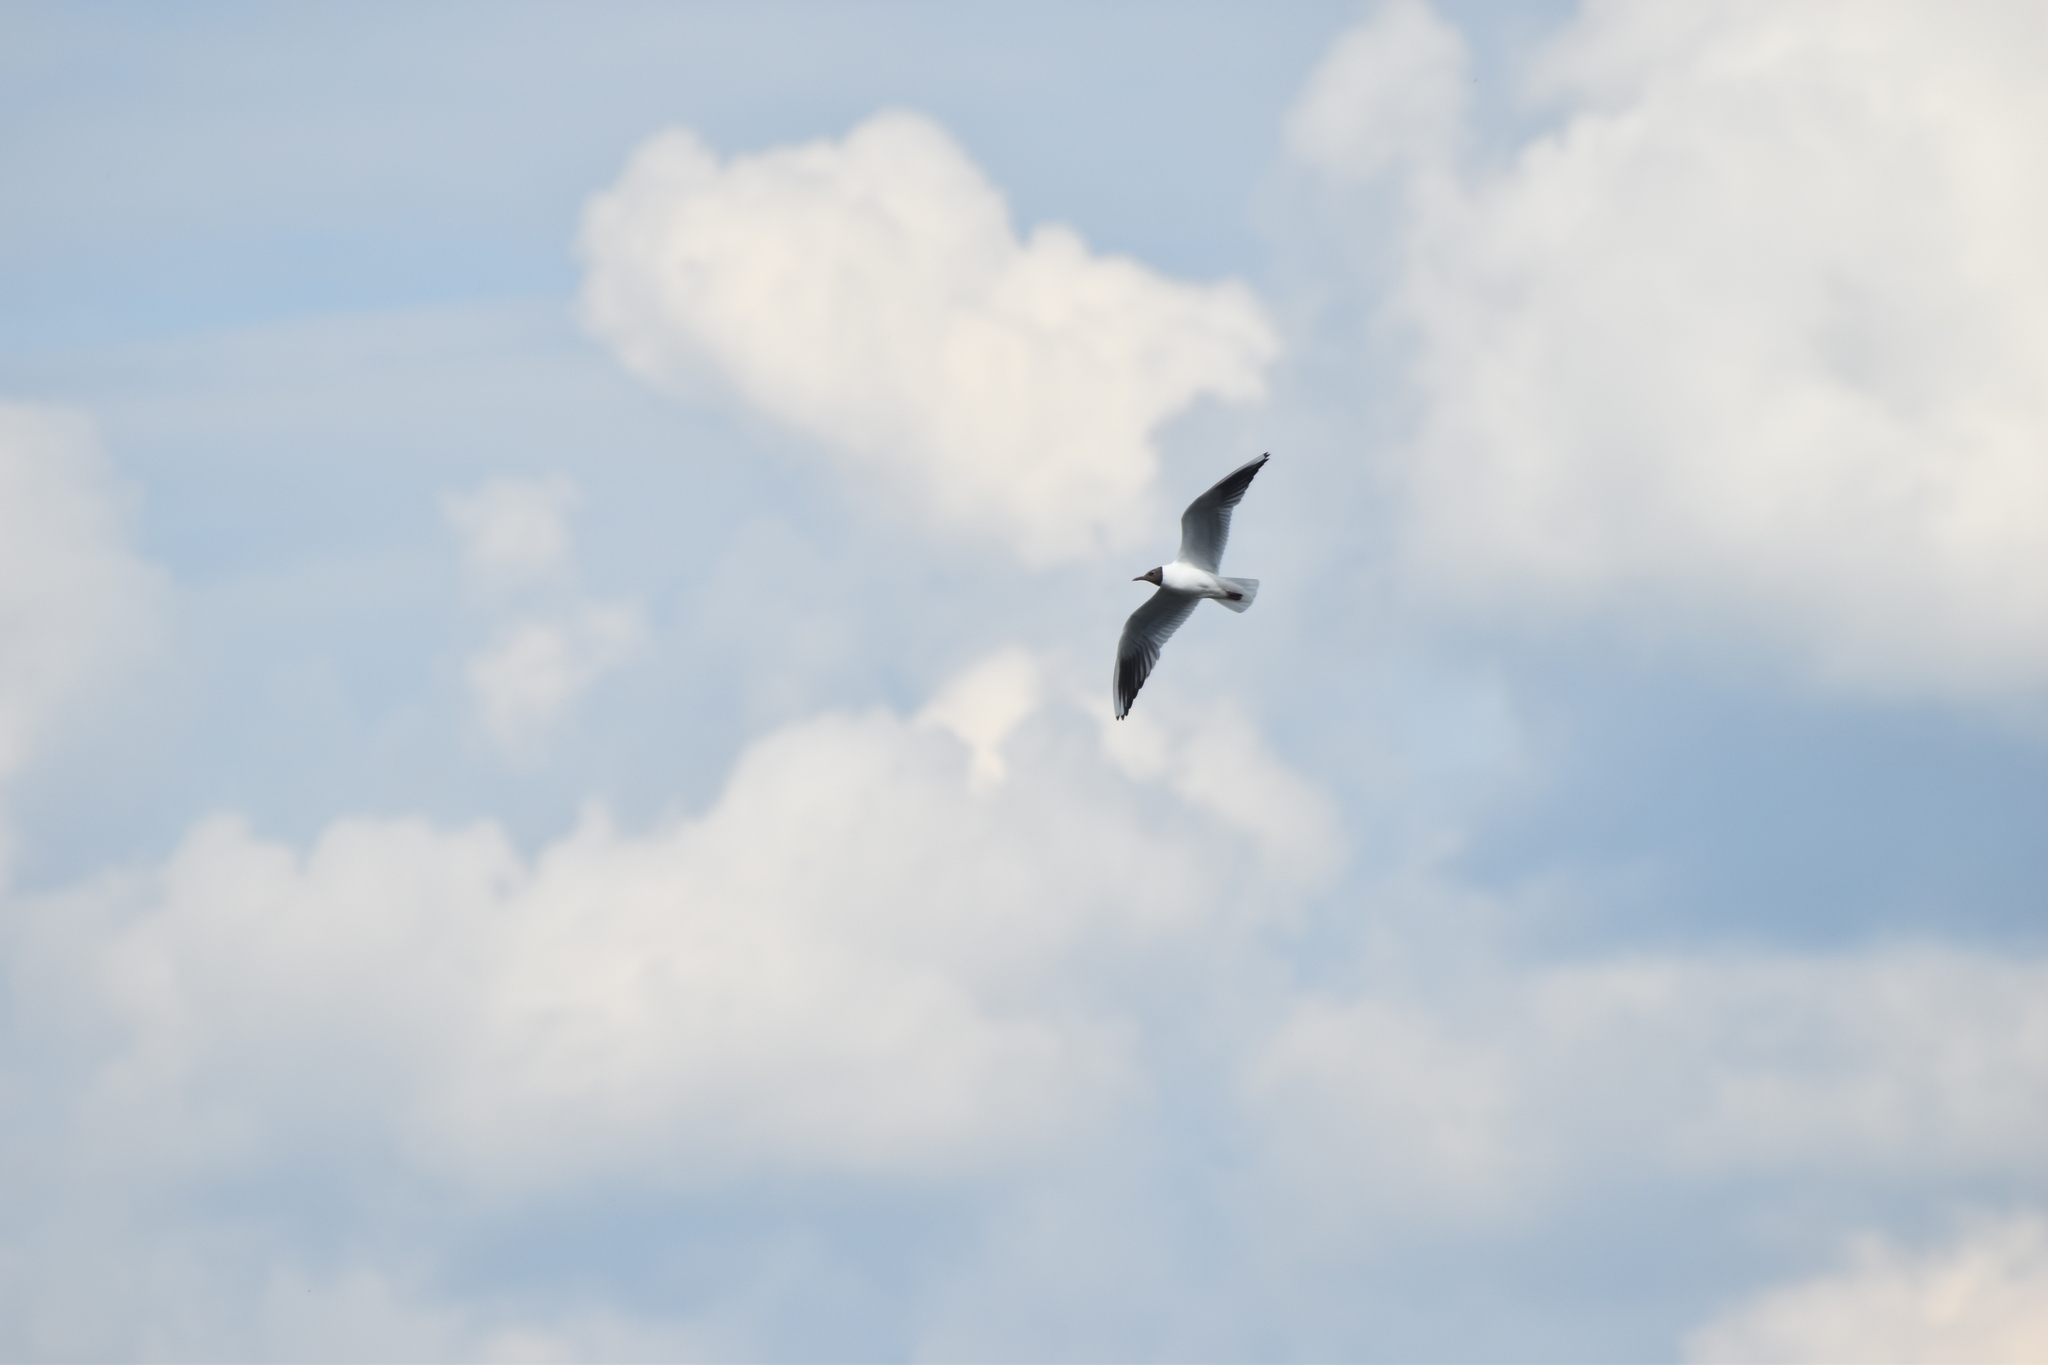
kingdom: Animalia
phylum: Chordata
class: Aves
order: Charadriiformes
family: Laridae
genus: Chroicocephalus
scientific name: Chroicocephalus ridibundus
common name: Black-headed gull
